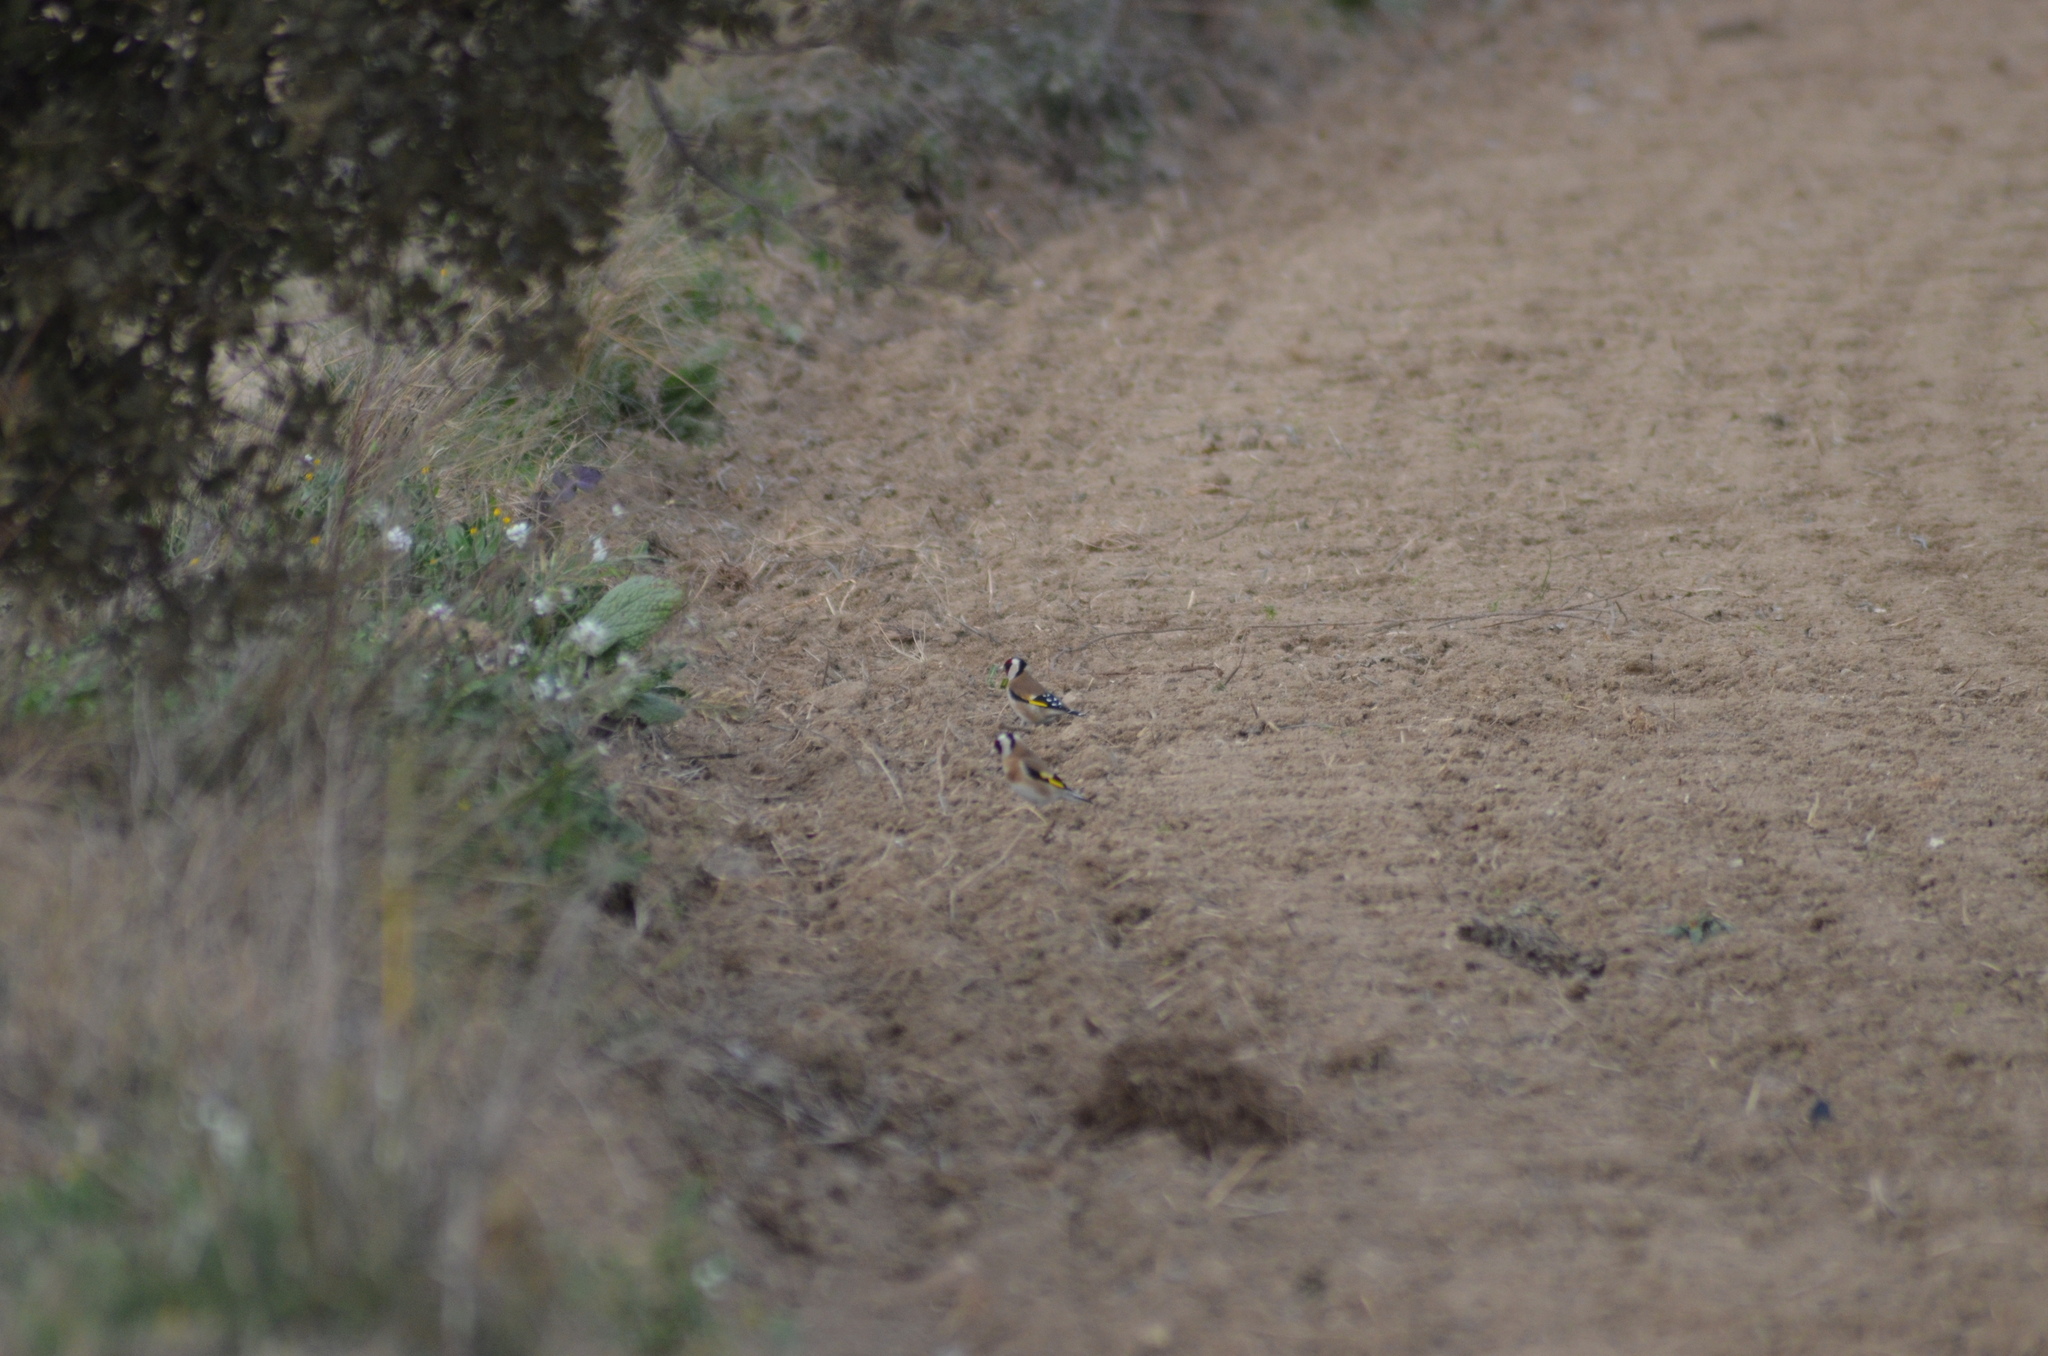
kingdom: Animalia
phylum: Chordata
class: Aves
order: Passeriformes
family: Fringillidae
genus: Carduelis
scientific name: Carduelis carduelis
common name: European goldfinch
